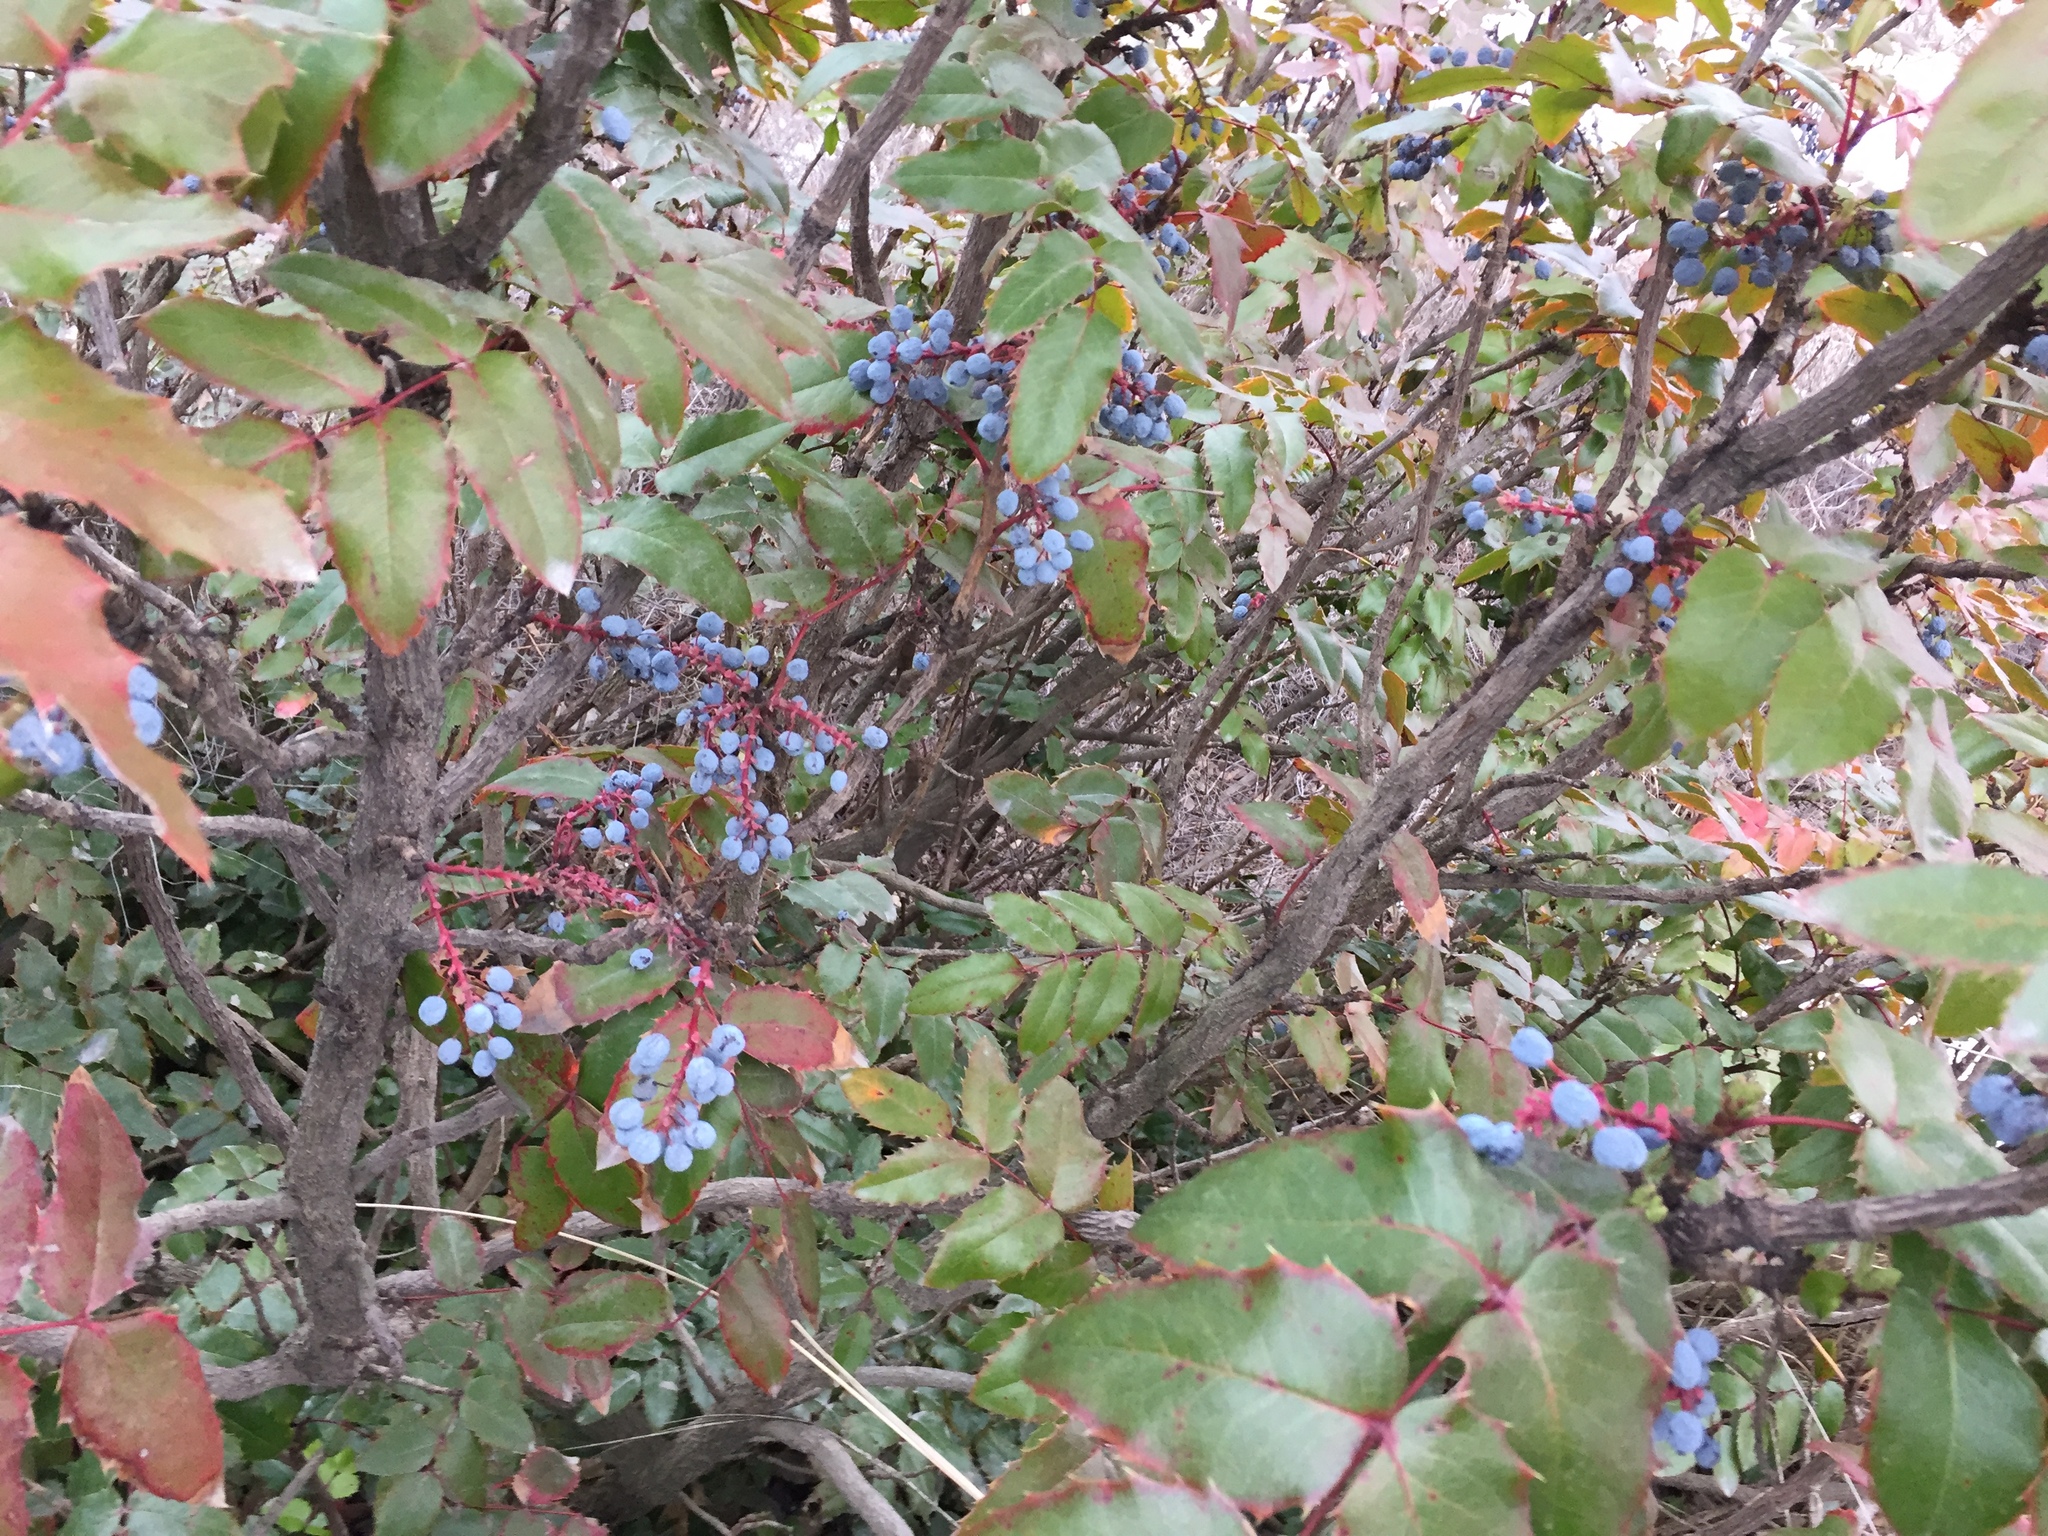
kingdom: Plantae
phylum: Tracheophyta
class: Magnoliopsida
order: Ranunculales
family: Berberidaceae
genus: Mahonia
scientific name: Mahonia aquifolium
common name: Oregon-grape
